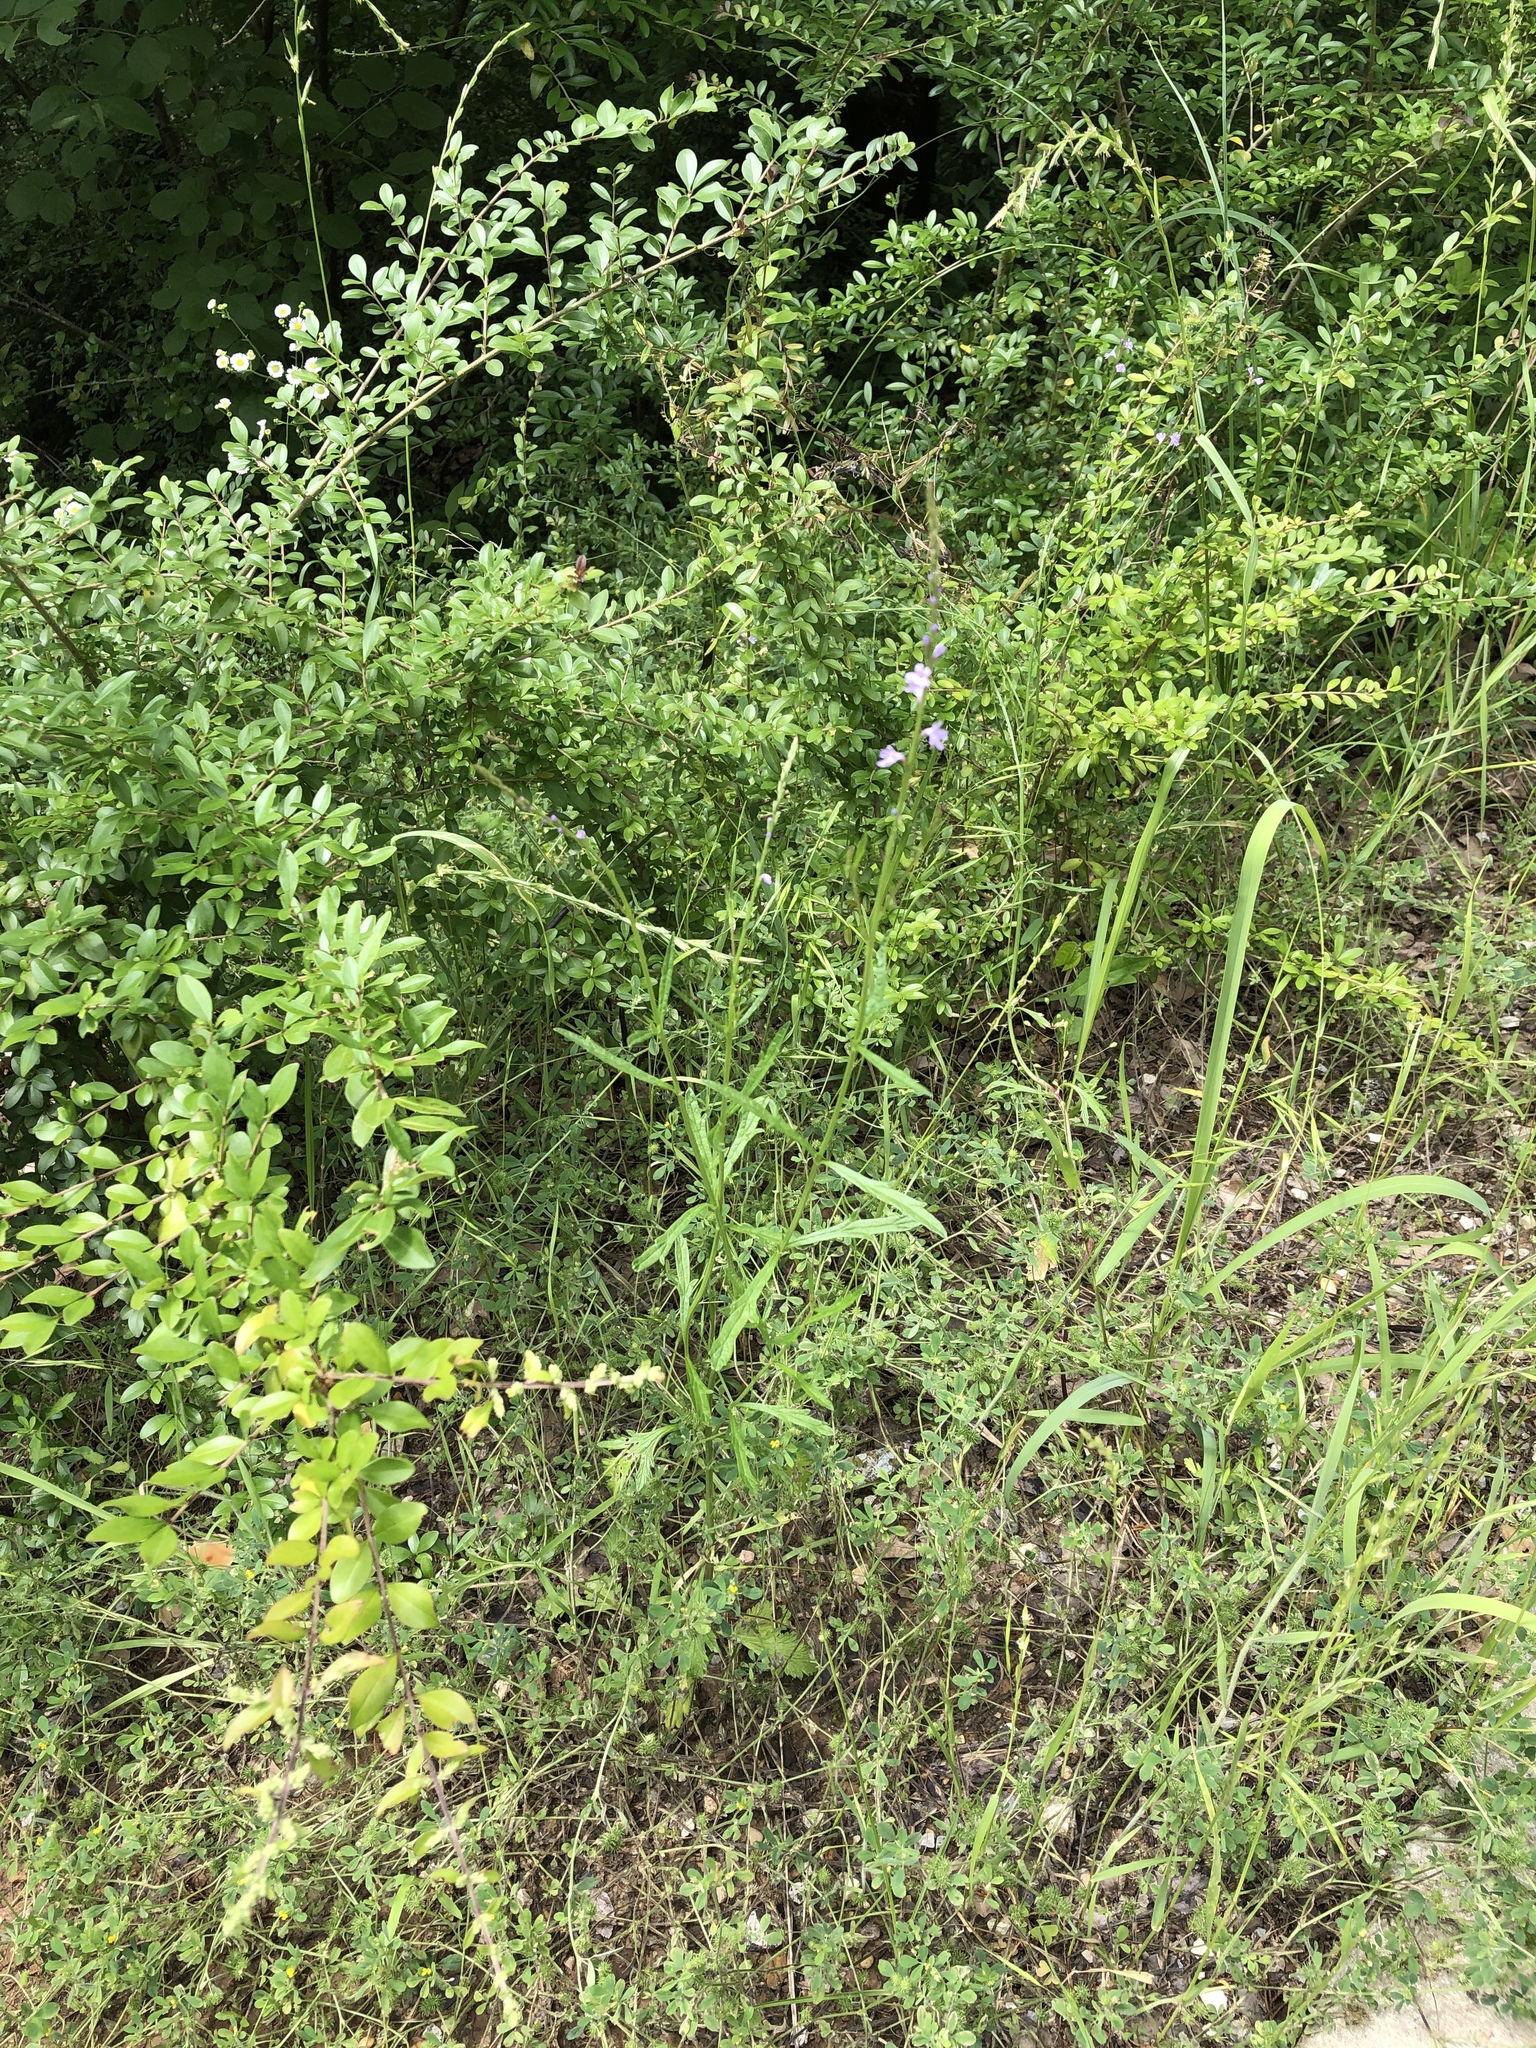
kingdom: Plantae
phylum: Tracheophyta
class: Magnoliopsida
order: Lamiales
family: Verbenaceae
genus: Verbena
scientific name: Verbena halei
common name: Texas vervain
